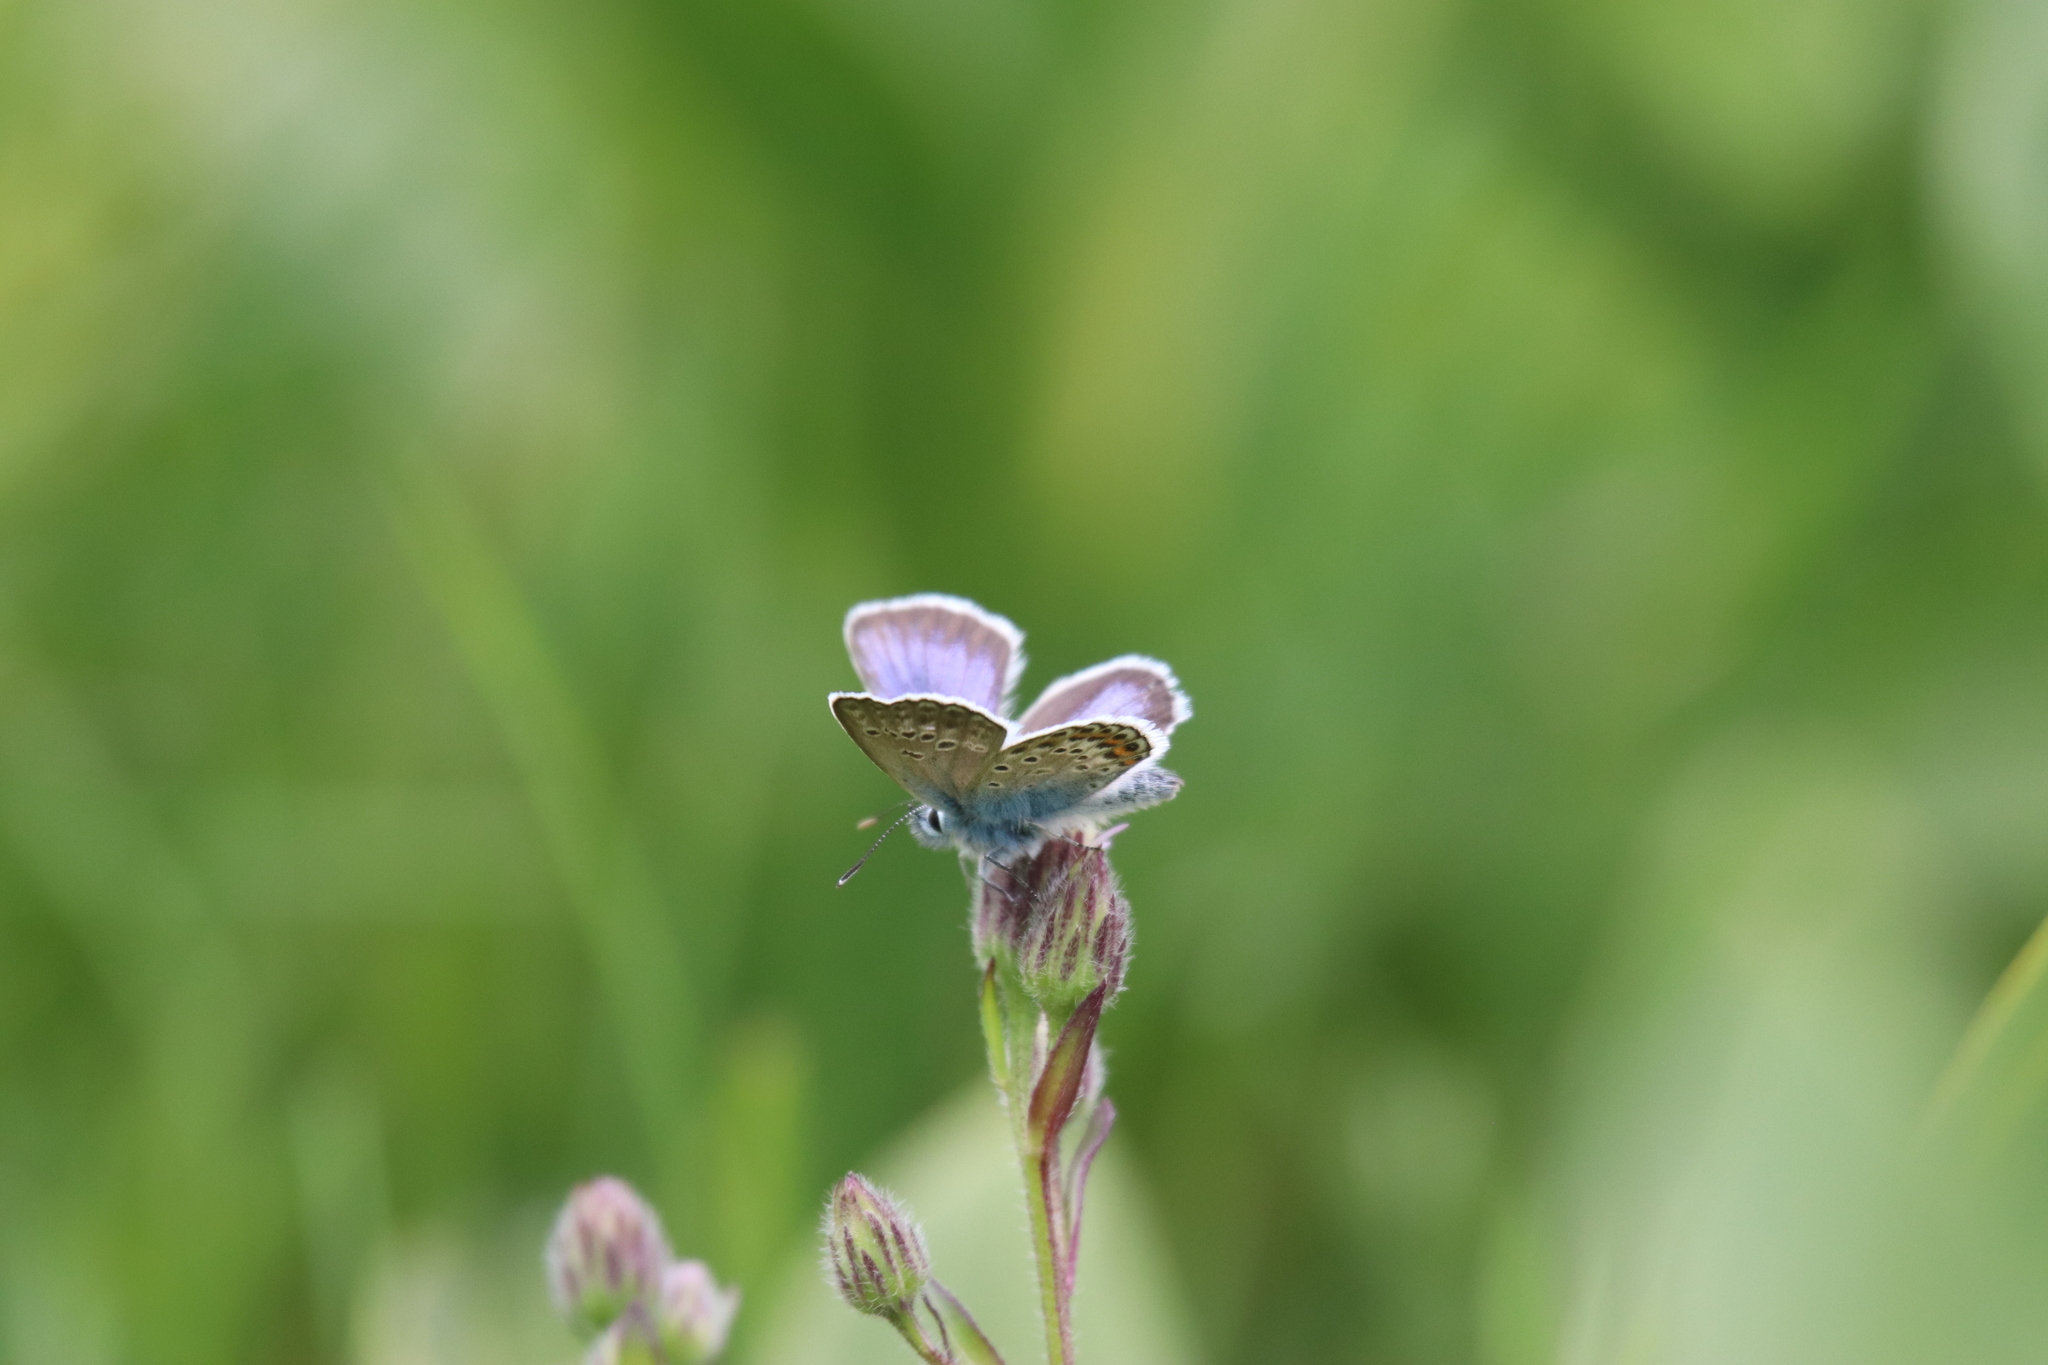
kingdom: Animalia
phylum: Arthropoda
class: Insecta
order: Lepidoptera
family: Lycaenidae
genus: Plebejus
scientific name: Plebejus argus
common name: Silver-studded blue
